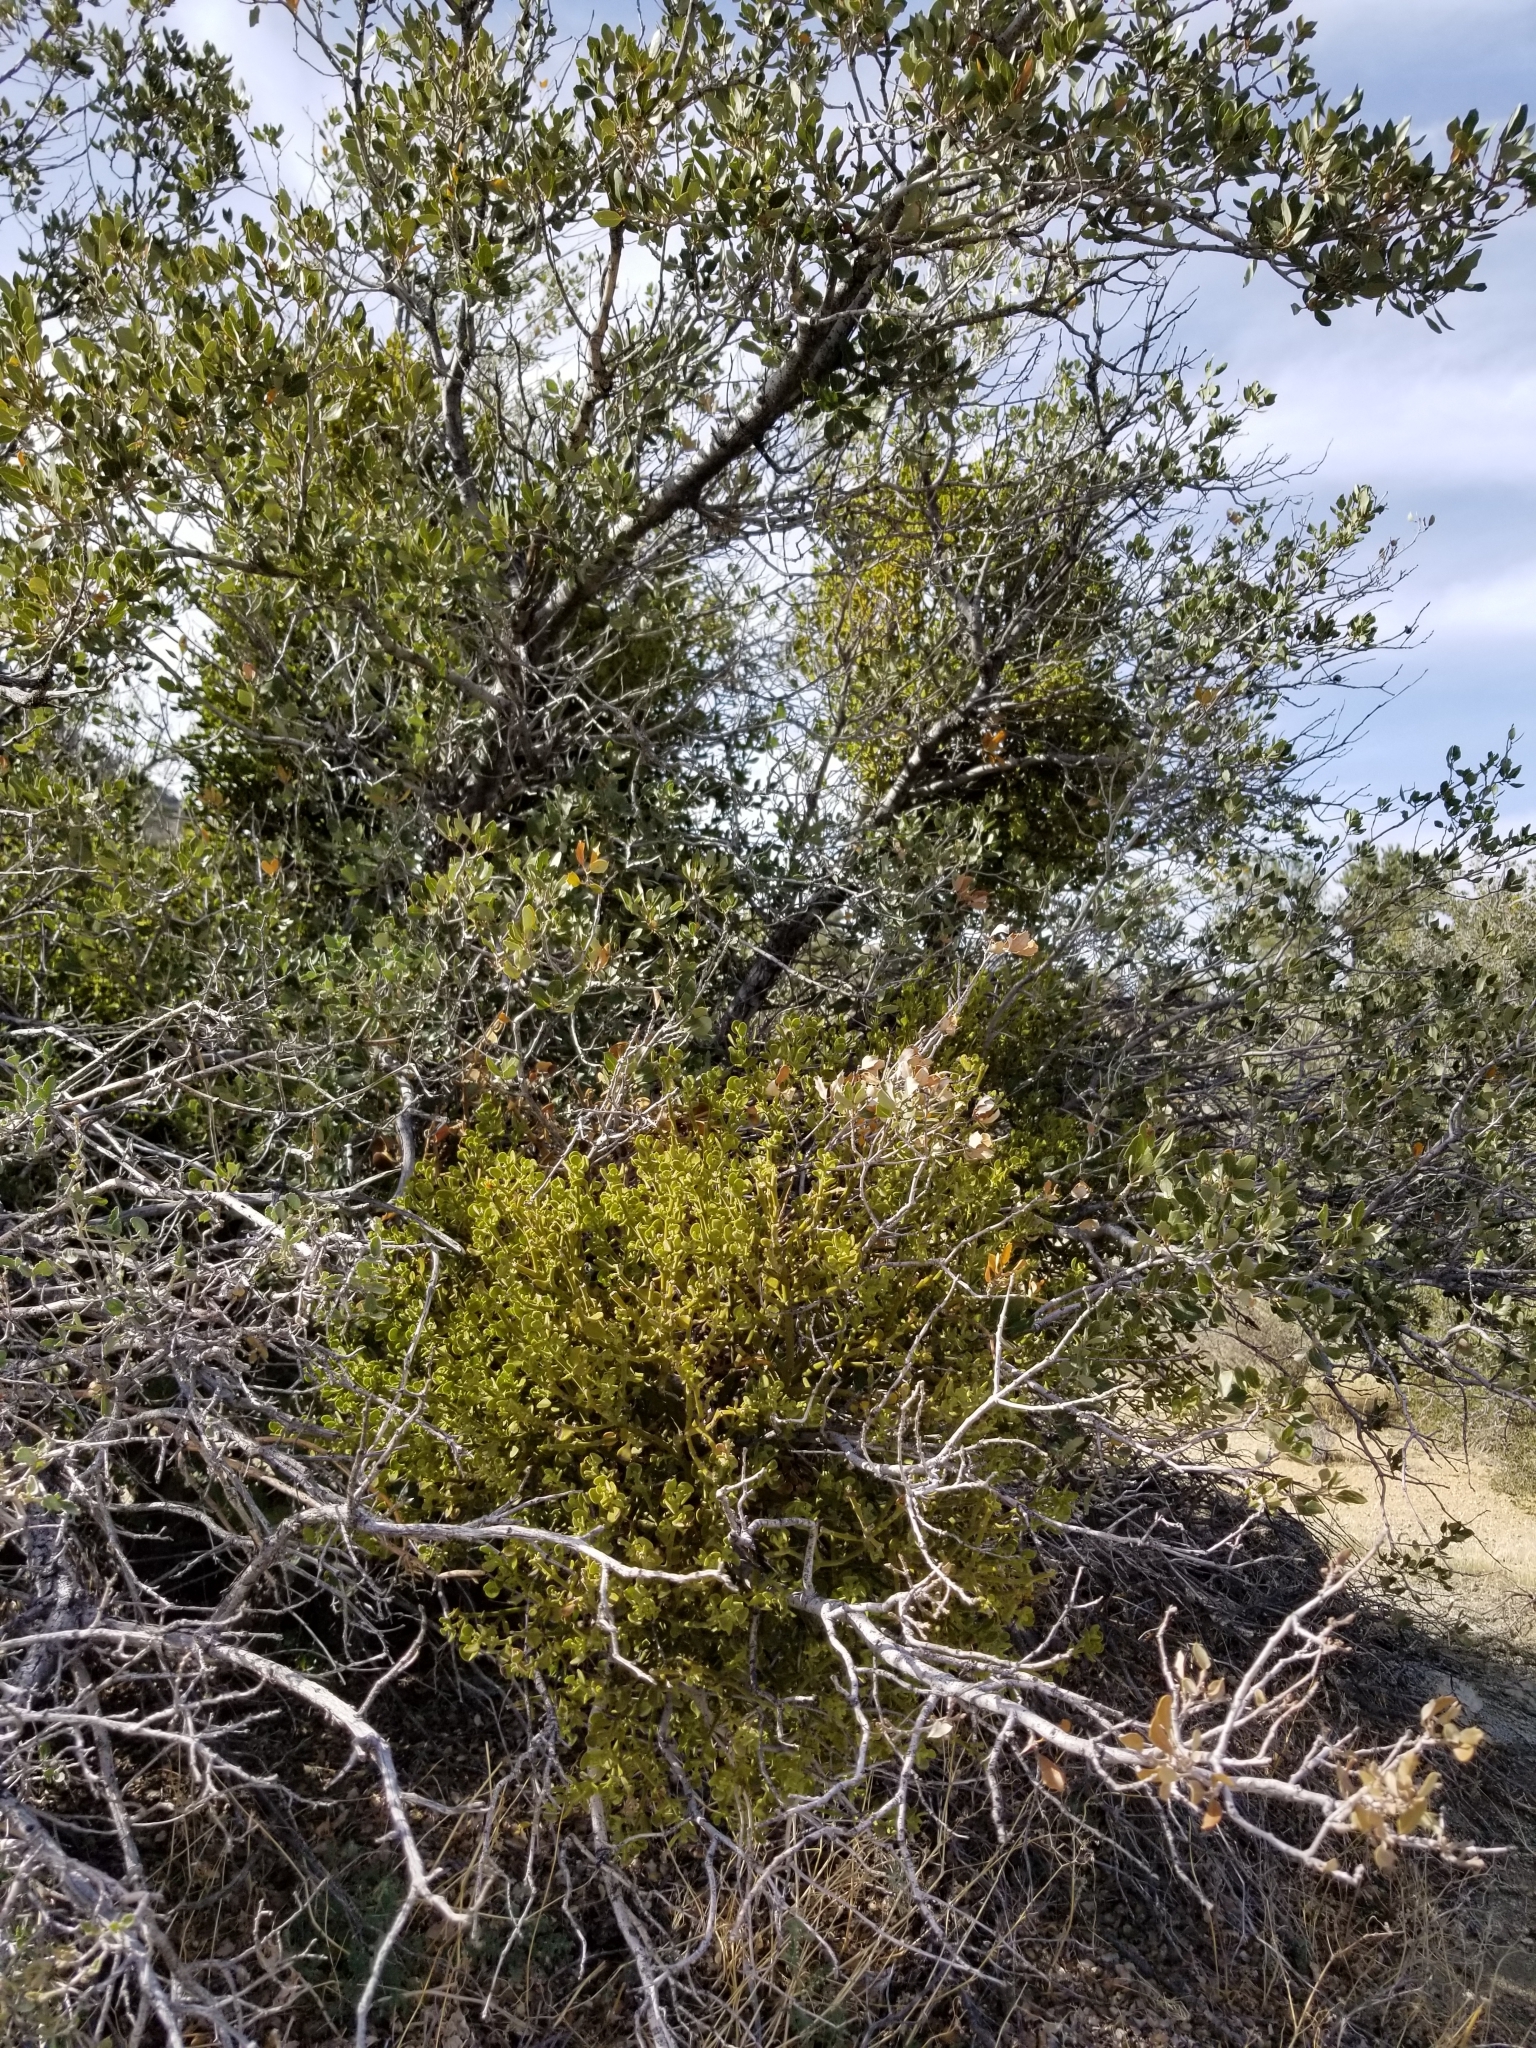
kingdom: Plantae
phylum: Tracheophyta
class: Magnoliopsida
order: Santalales
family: Viscaceae
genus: Phoradendron
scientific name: Phoradendron leucarpum
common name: Pacific mistletoe
